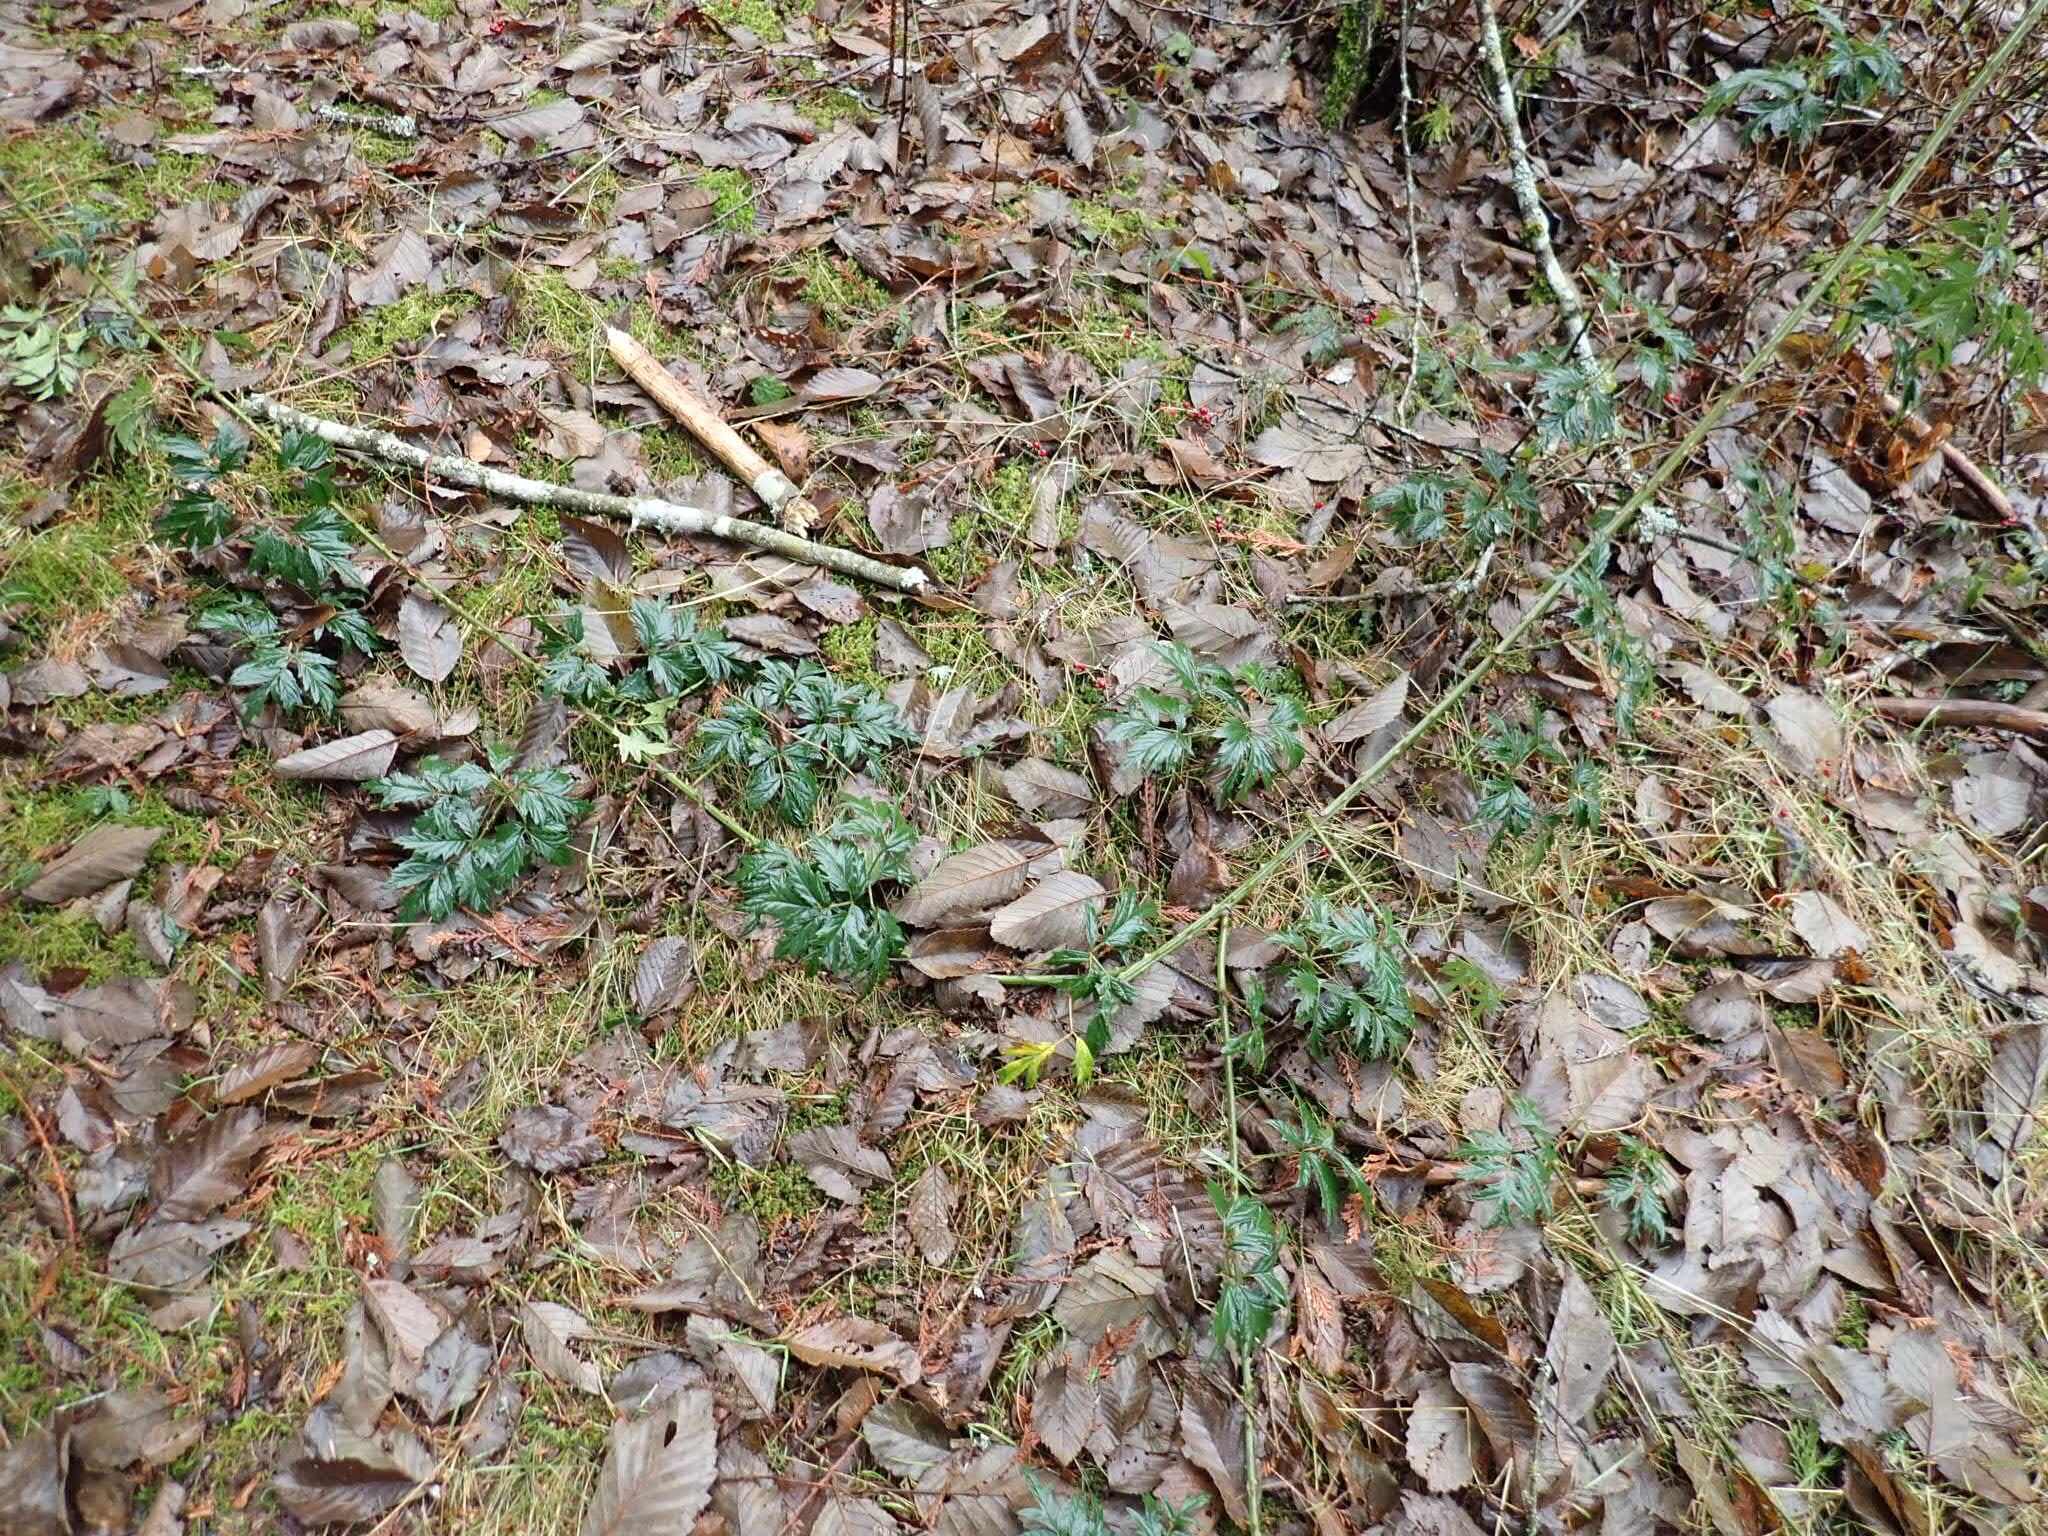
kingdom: Plantae
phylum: Tracheophyta
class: Magnoliopsida
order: Rosales
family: Rosaceae
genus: Rubus
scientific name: Rubus laciniatus
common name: Evergreen blackberry
